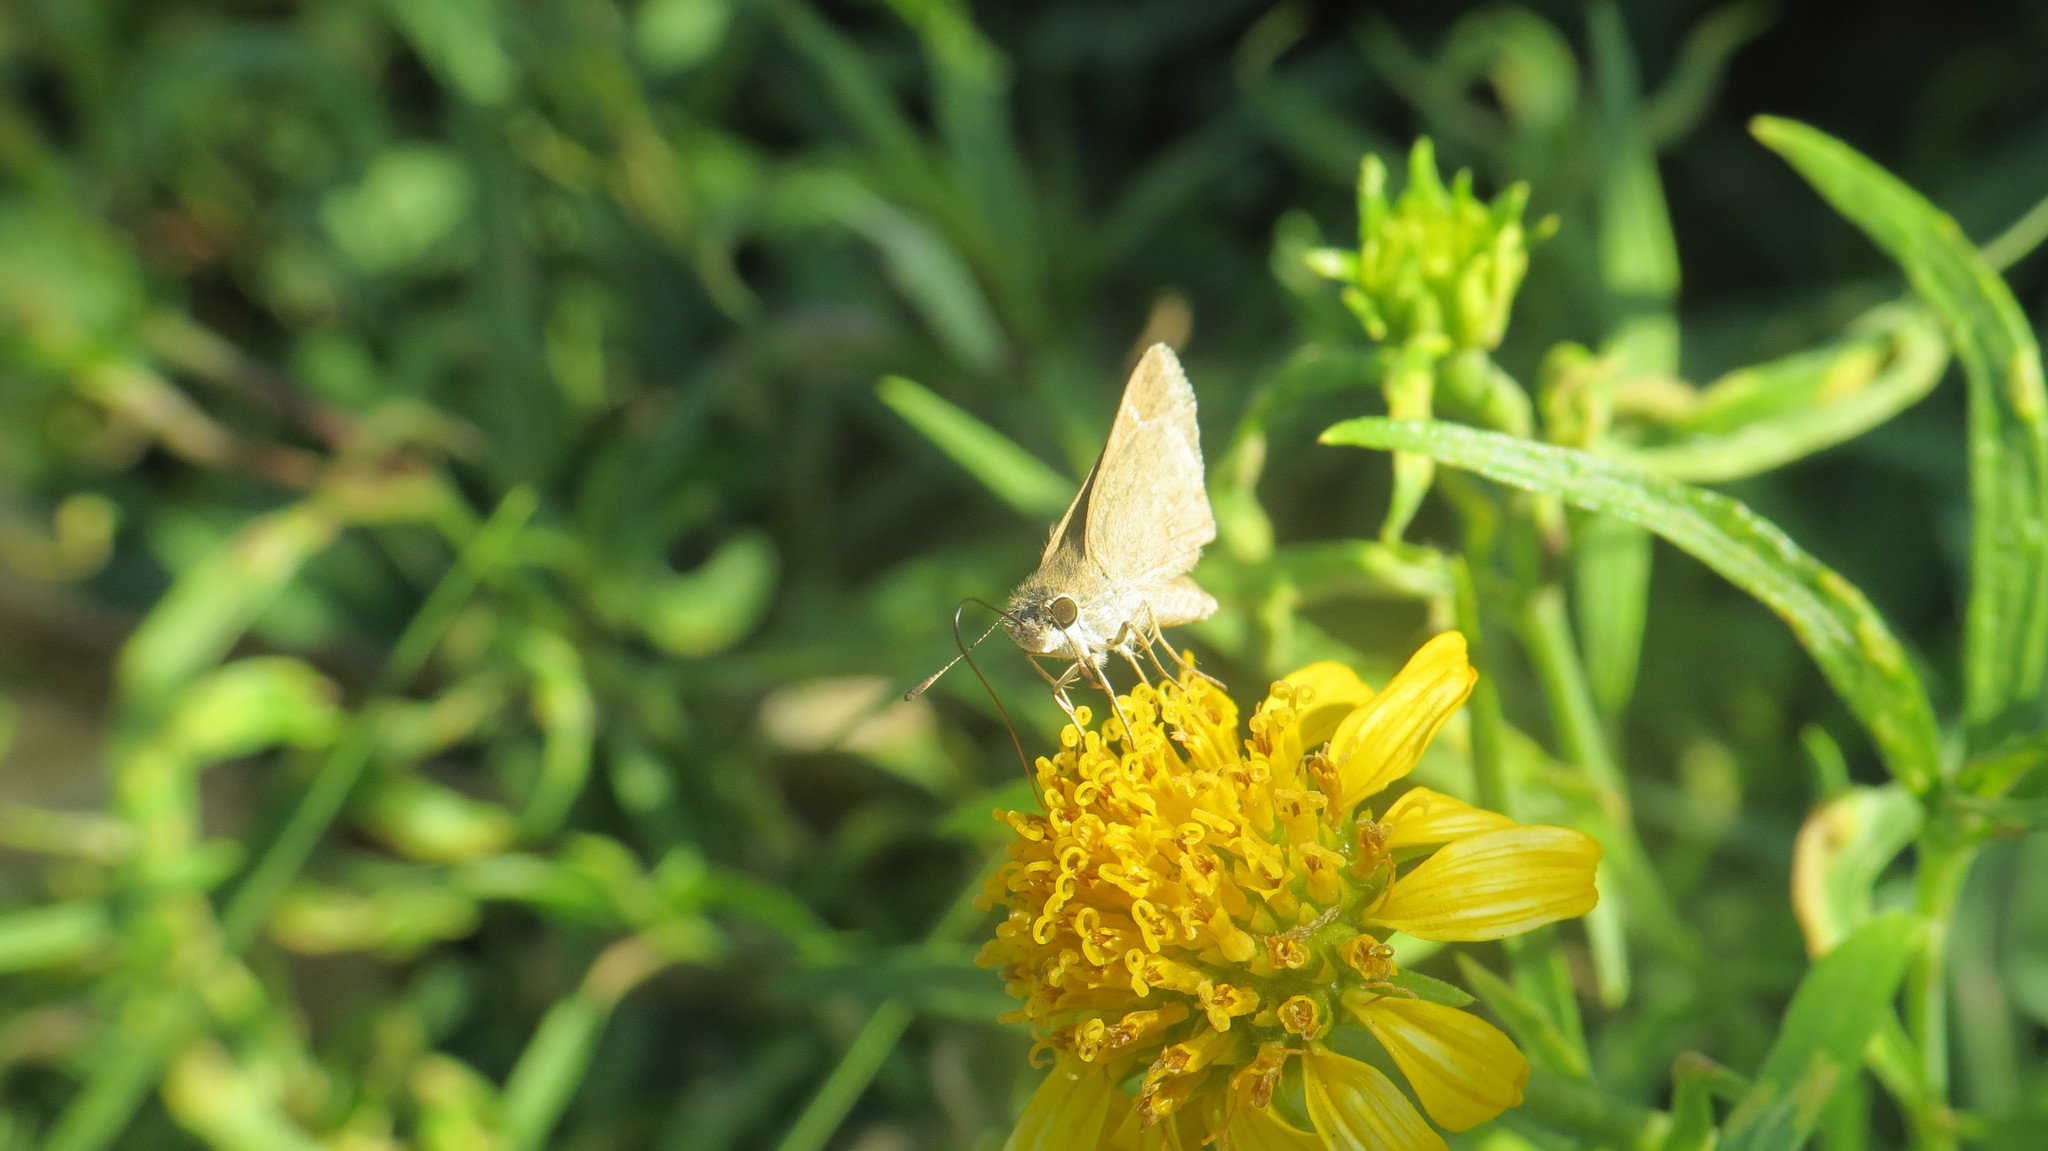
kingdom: Animalia
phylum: Arthropoda
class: Insecta
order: Lepidoptera
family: Hesperiidae
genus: Lerodea
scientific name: Lerodea eufala
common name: Eufala skipper
